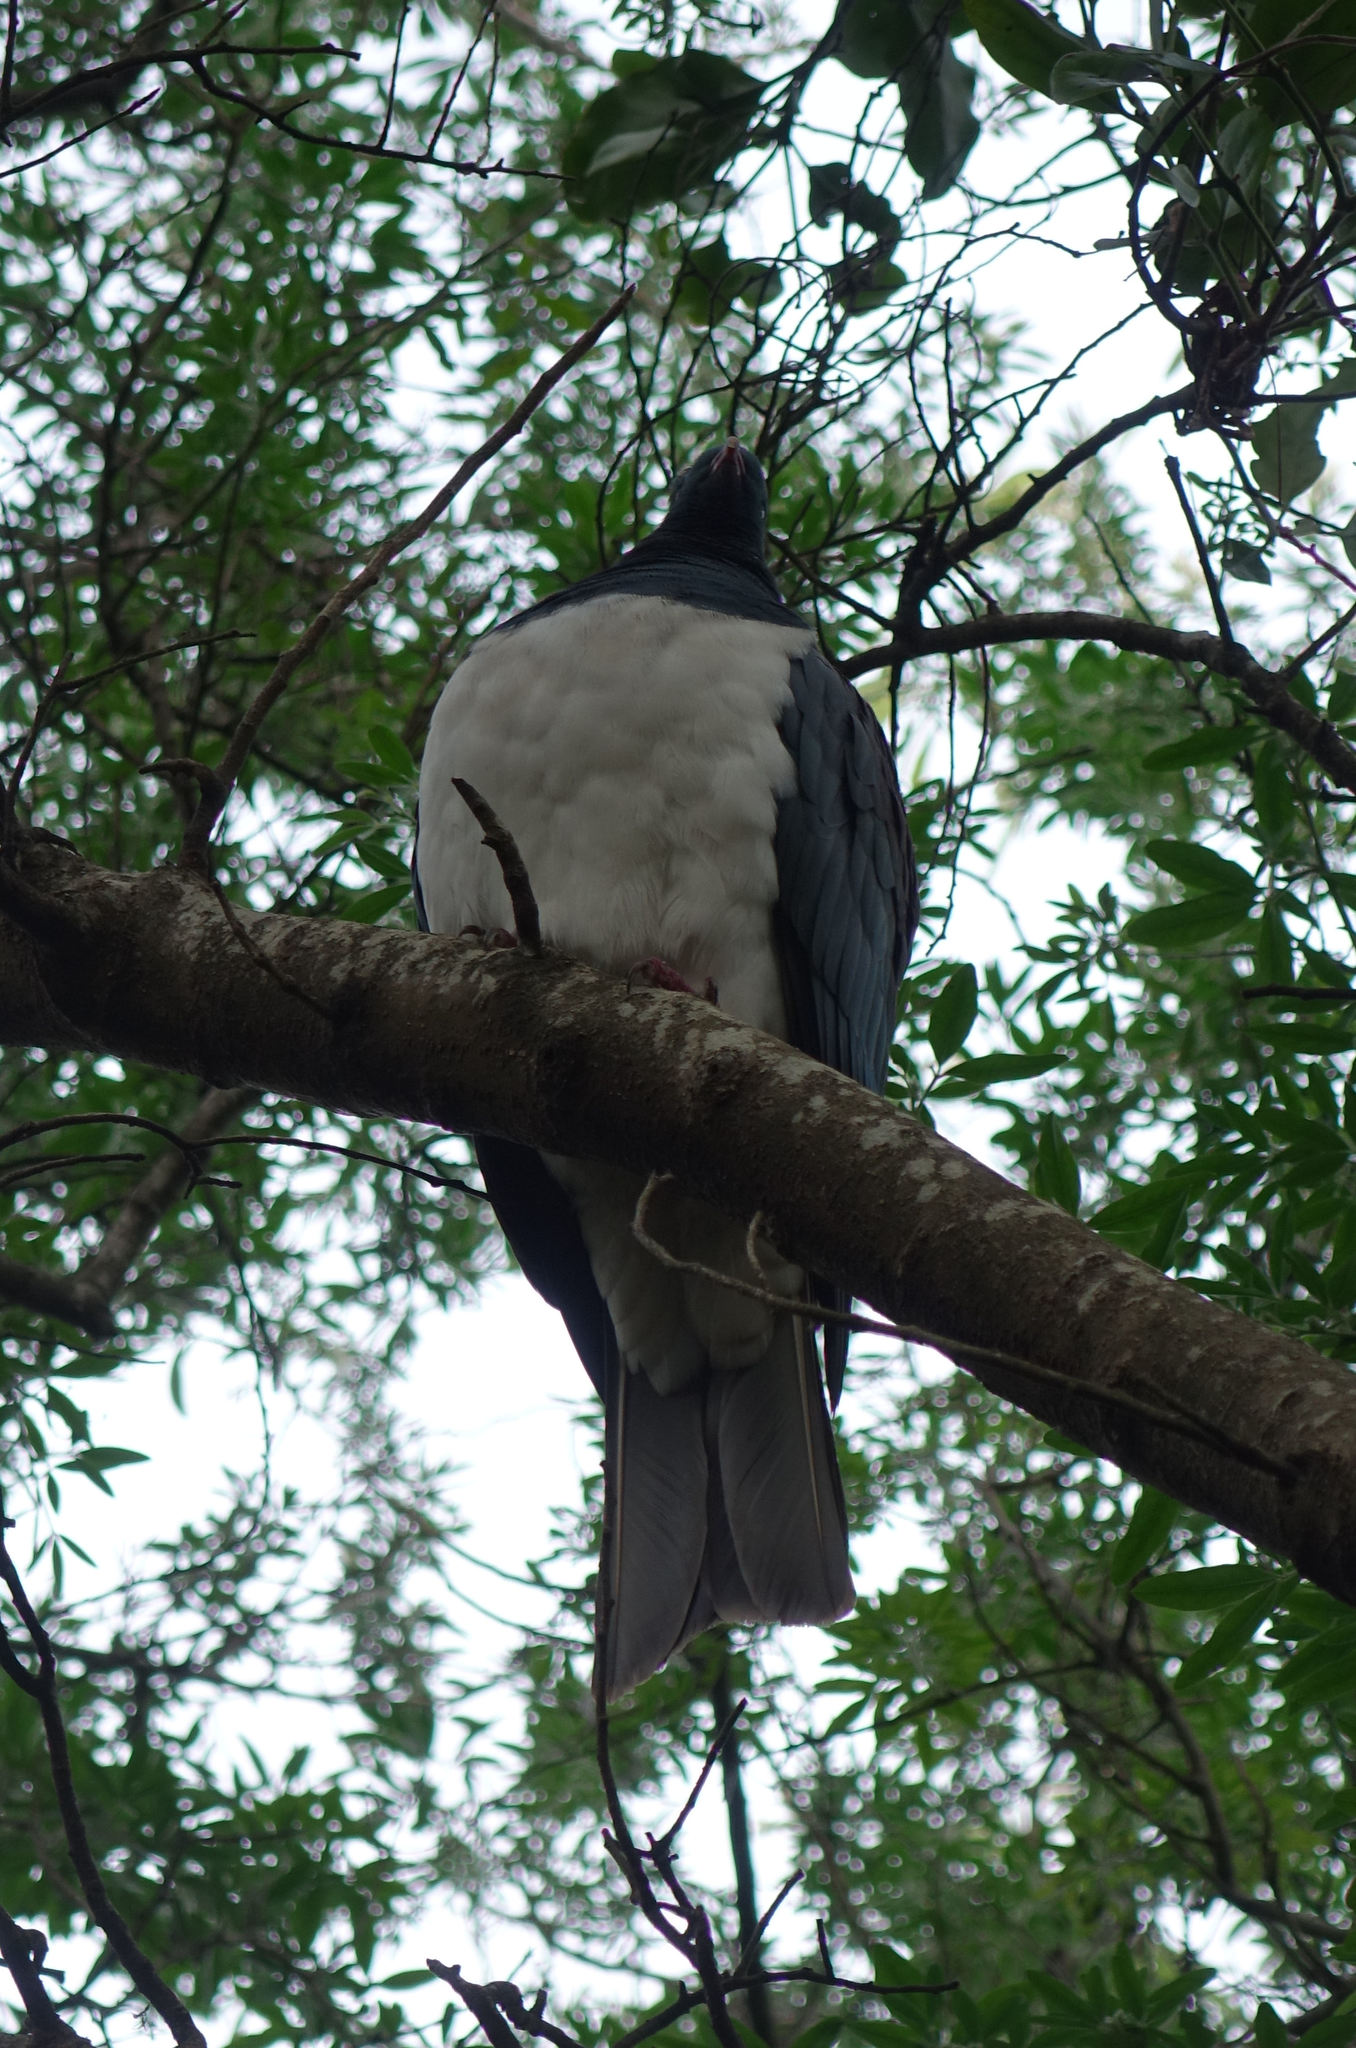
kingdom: Animalia
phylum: Chordata
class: Aves
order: Columbiformes
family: Columbidae
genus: Hemiphaga
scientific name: Hemiphaga novaeseelandiae
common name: New zealand pigeon
